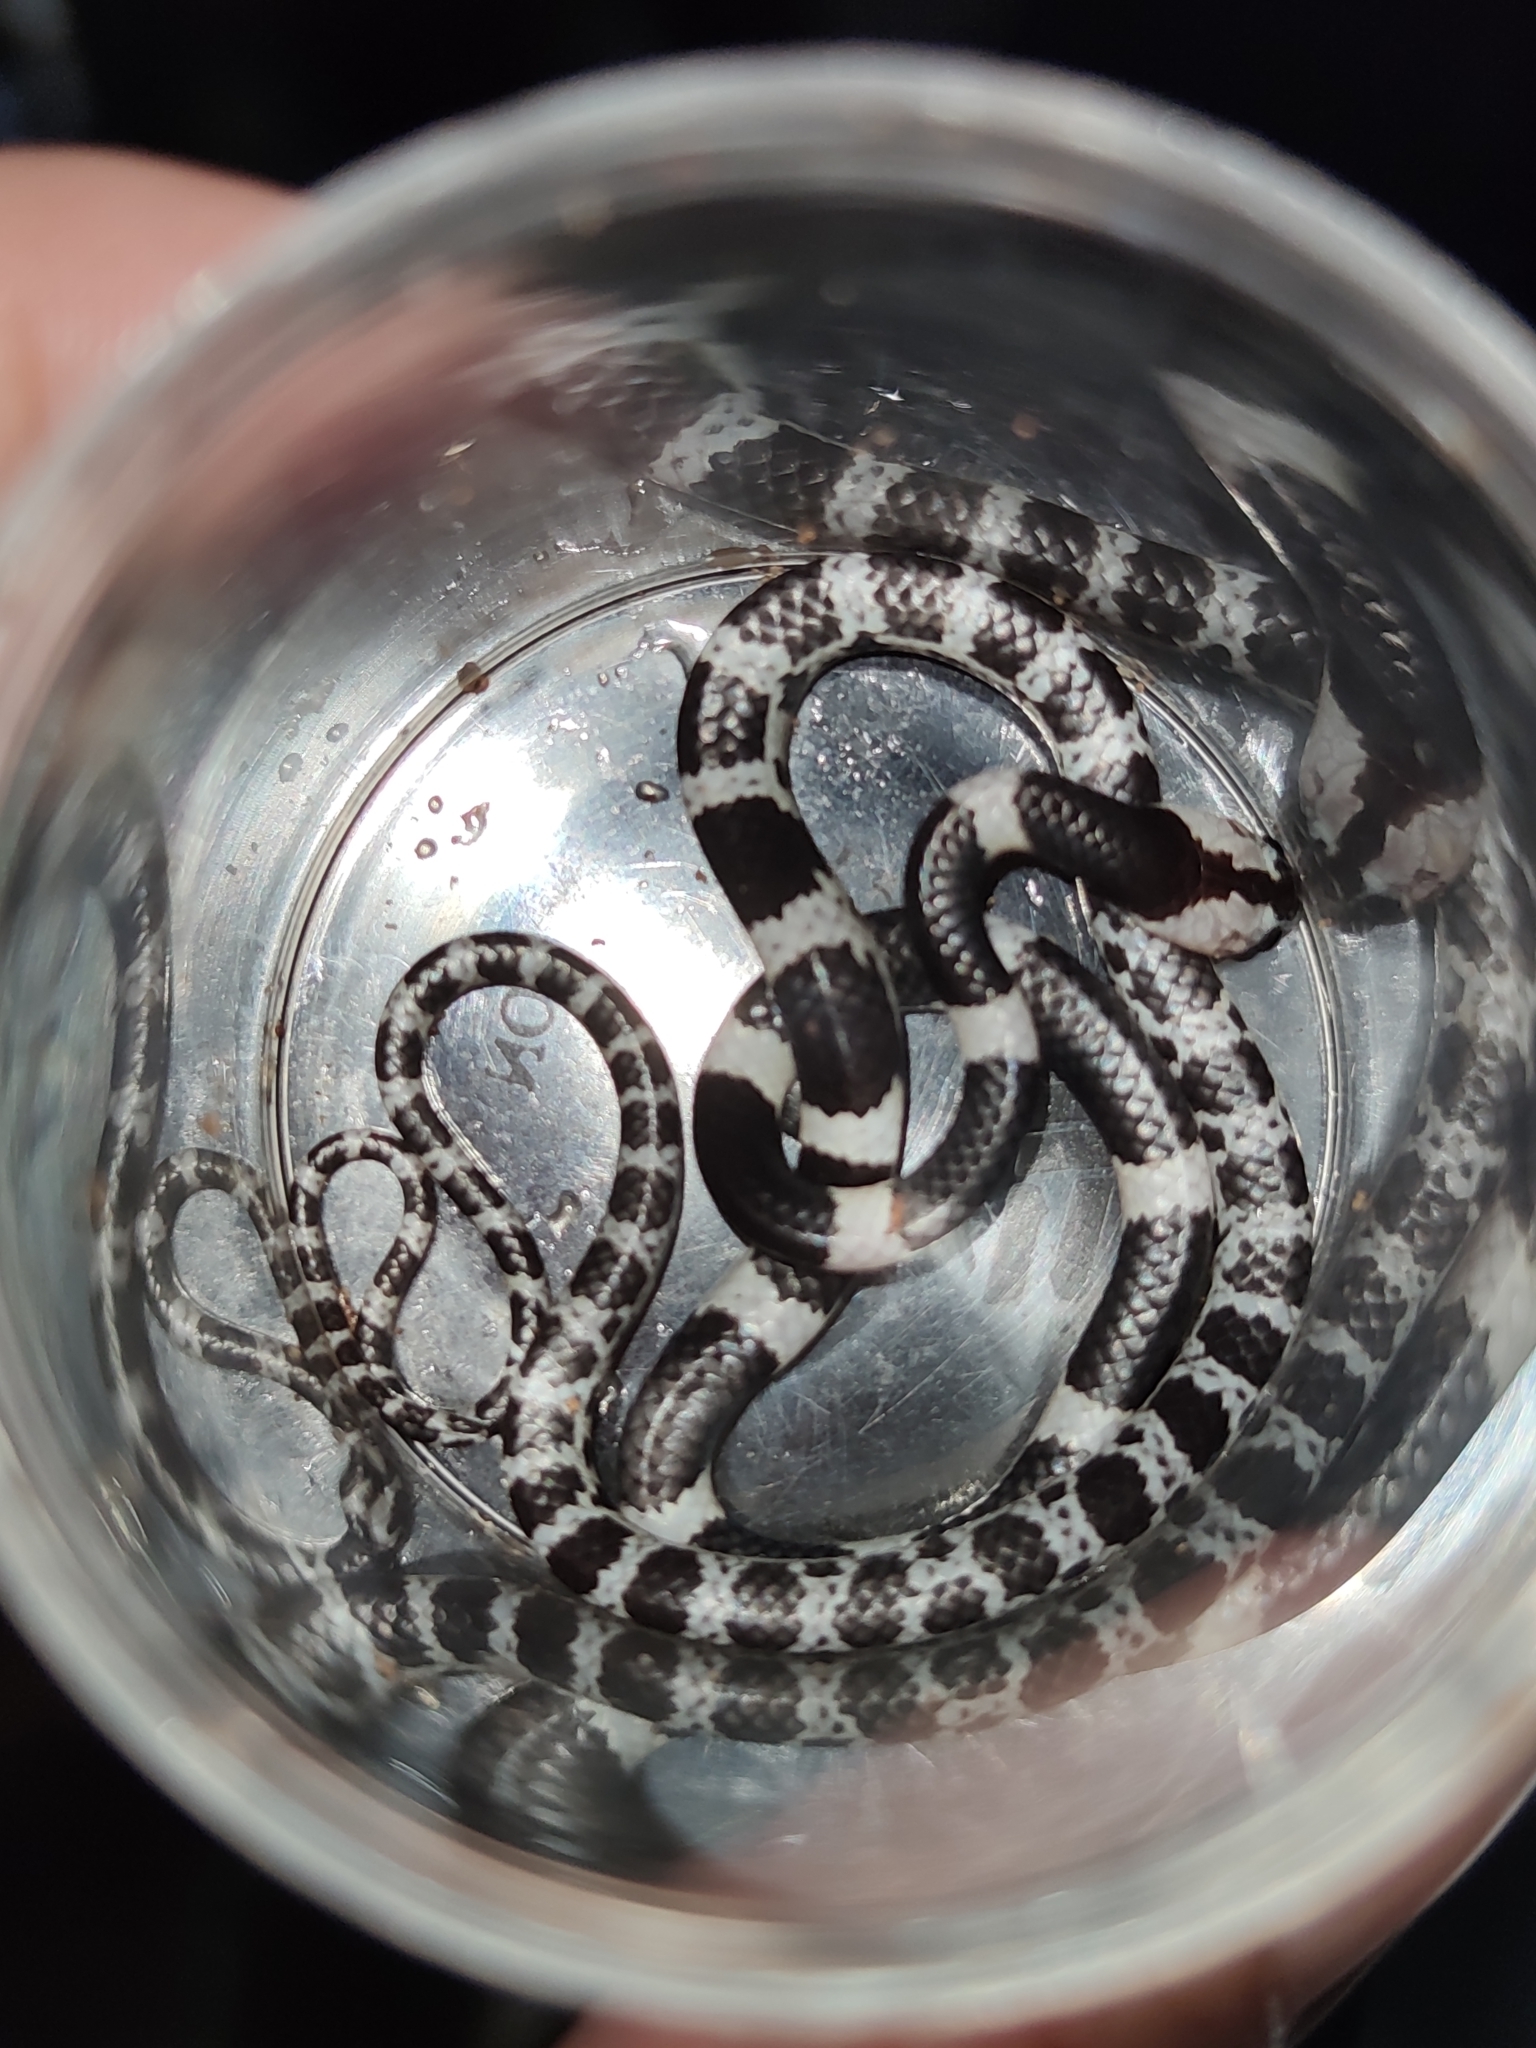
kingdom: Animalia
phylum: Chordata
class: Squamata
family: Colubridae
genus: Lycodon
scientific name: Lycodon davisonii
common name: Blanford's bridal snake
